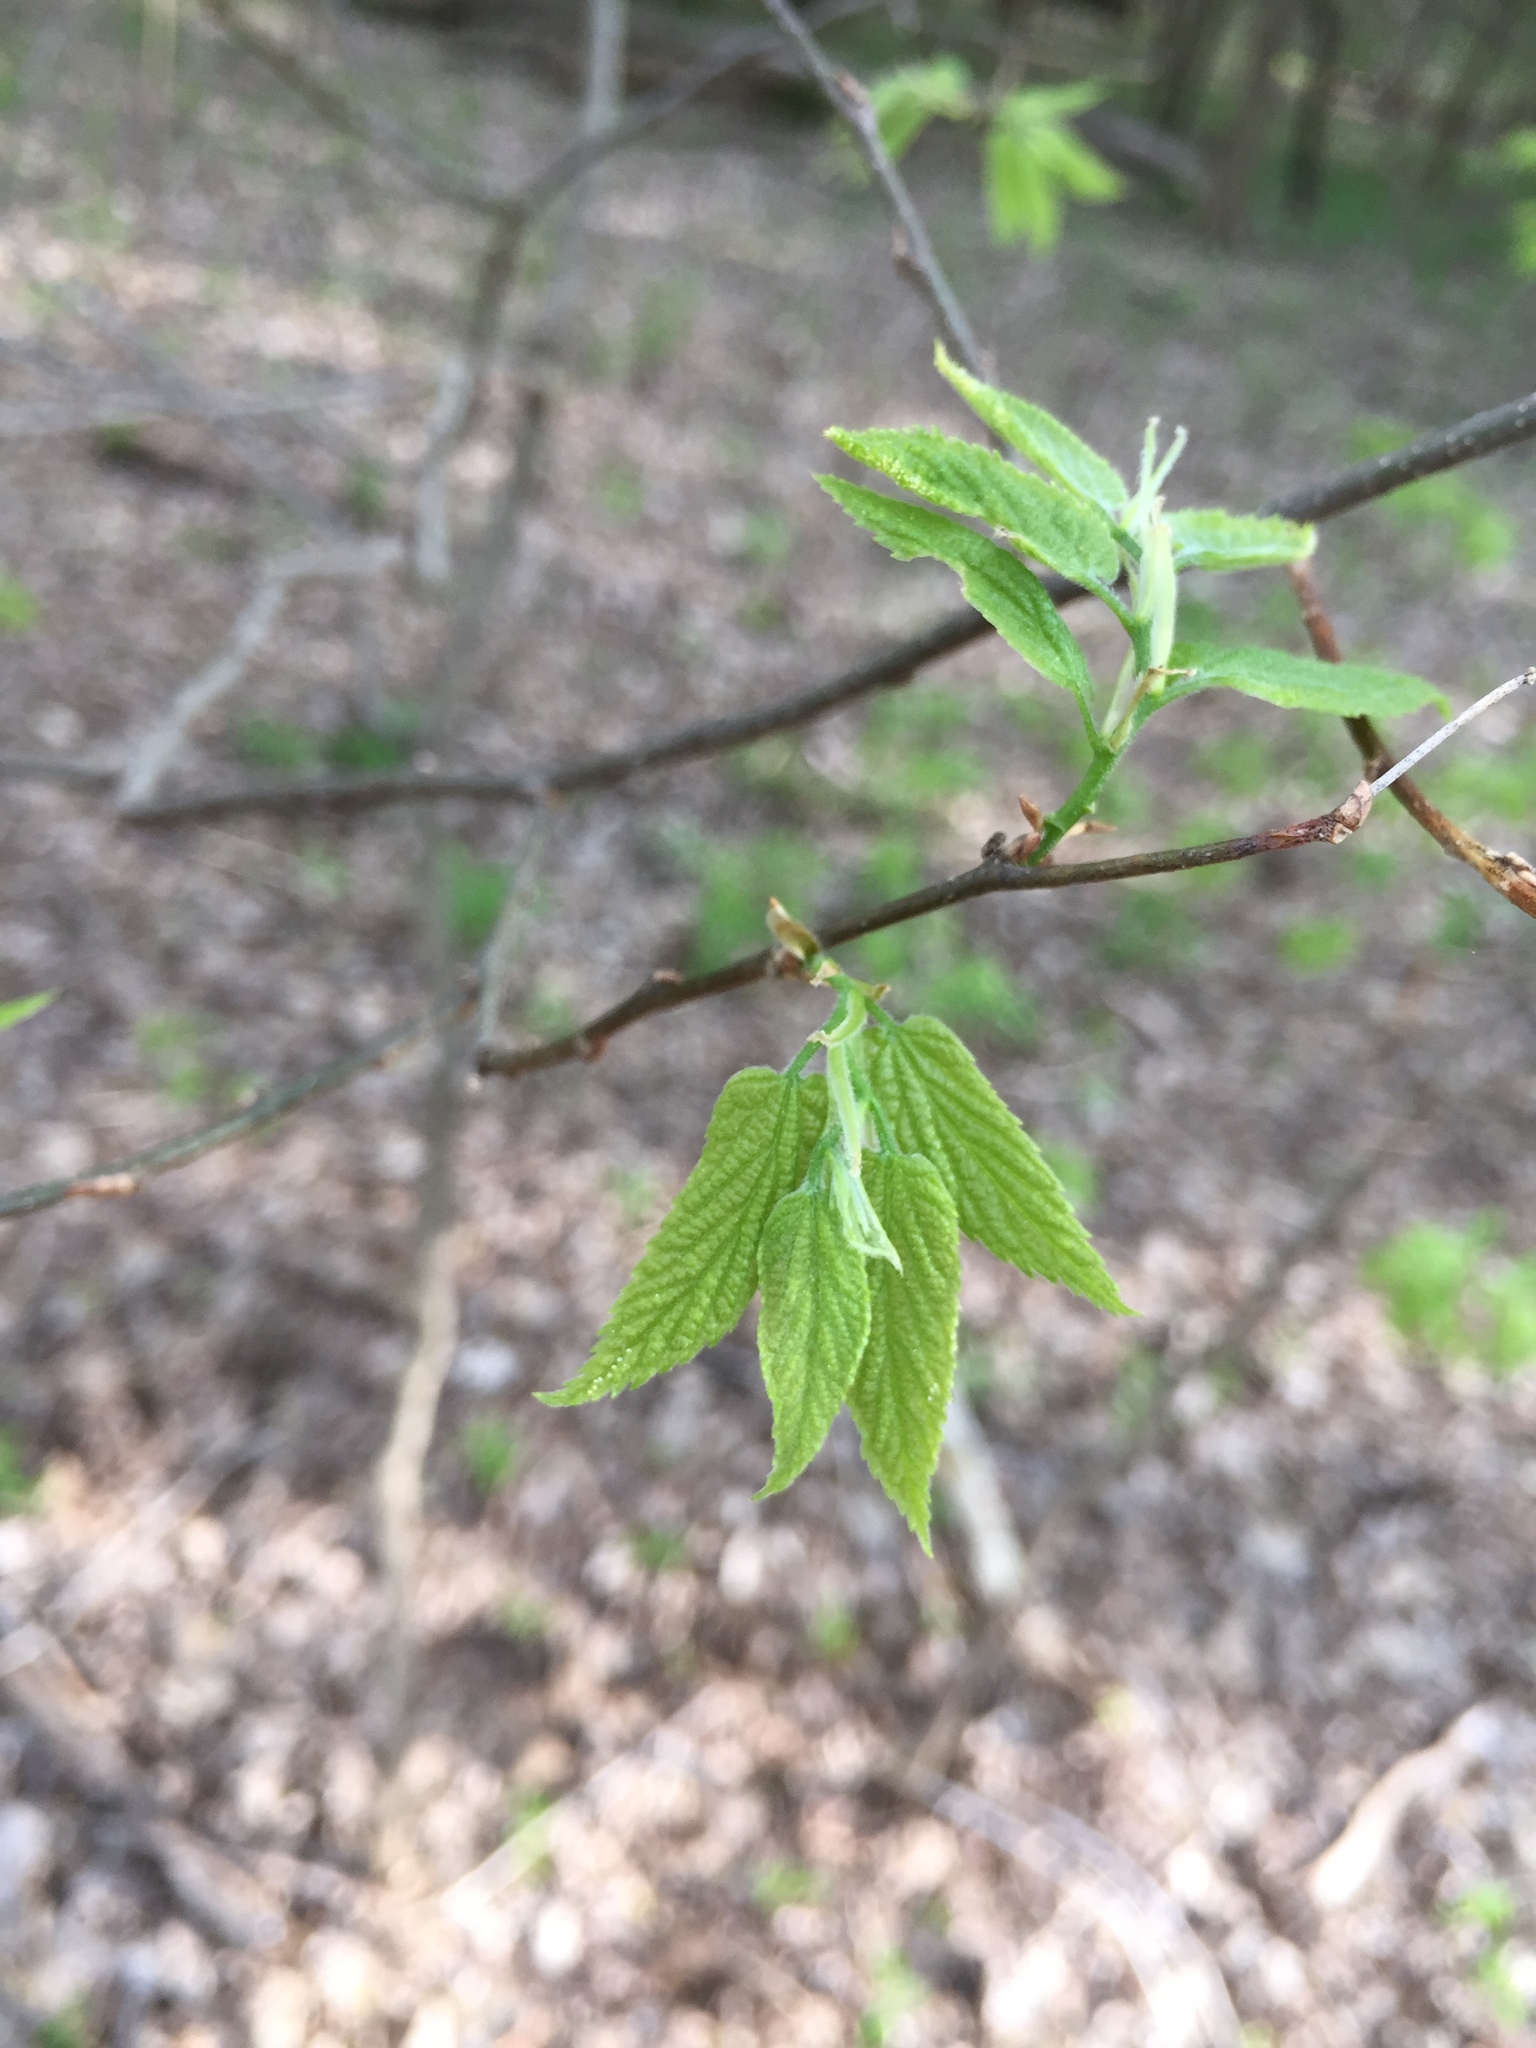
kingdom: Plantae
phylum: Tracheophyta
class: Magnoliopsida
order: Rosales
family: Cannabaceae
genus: Celtis
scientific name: Celtis occidentalis
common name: Common hackberry
